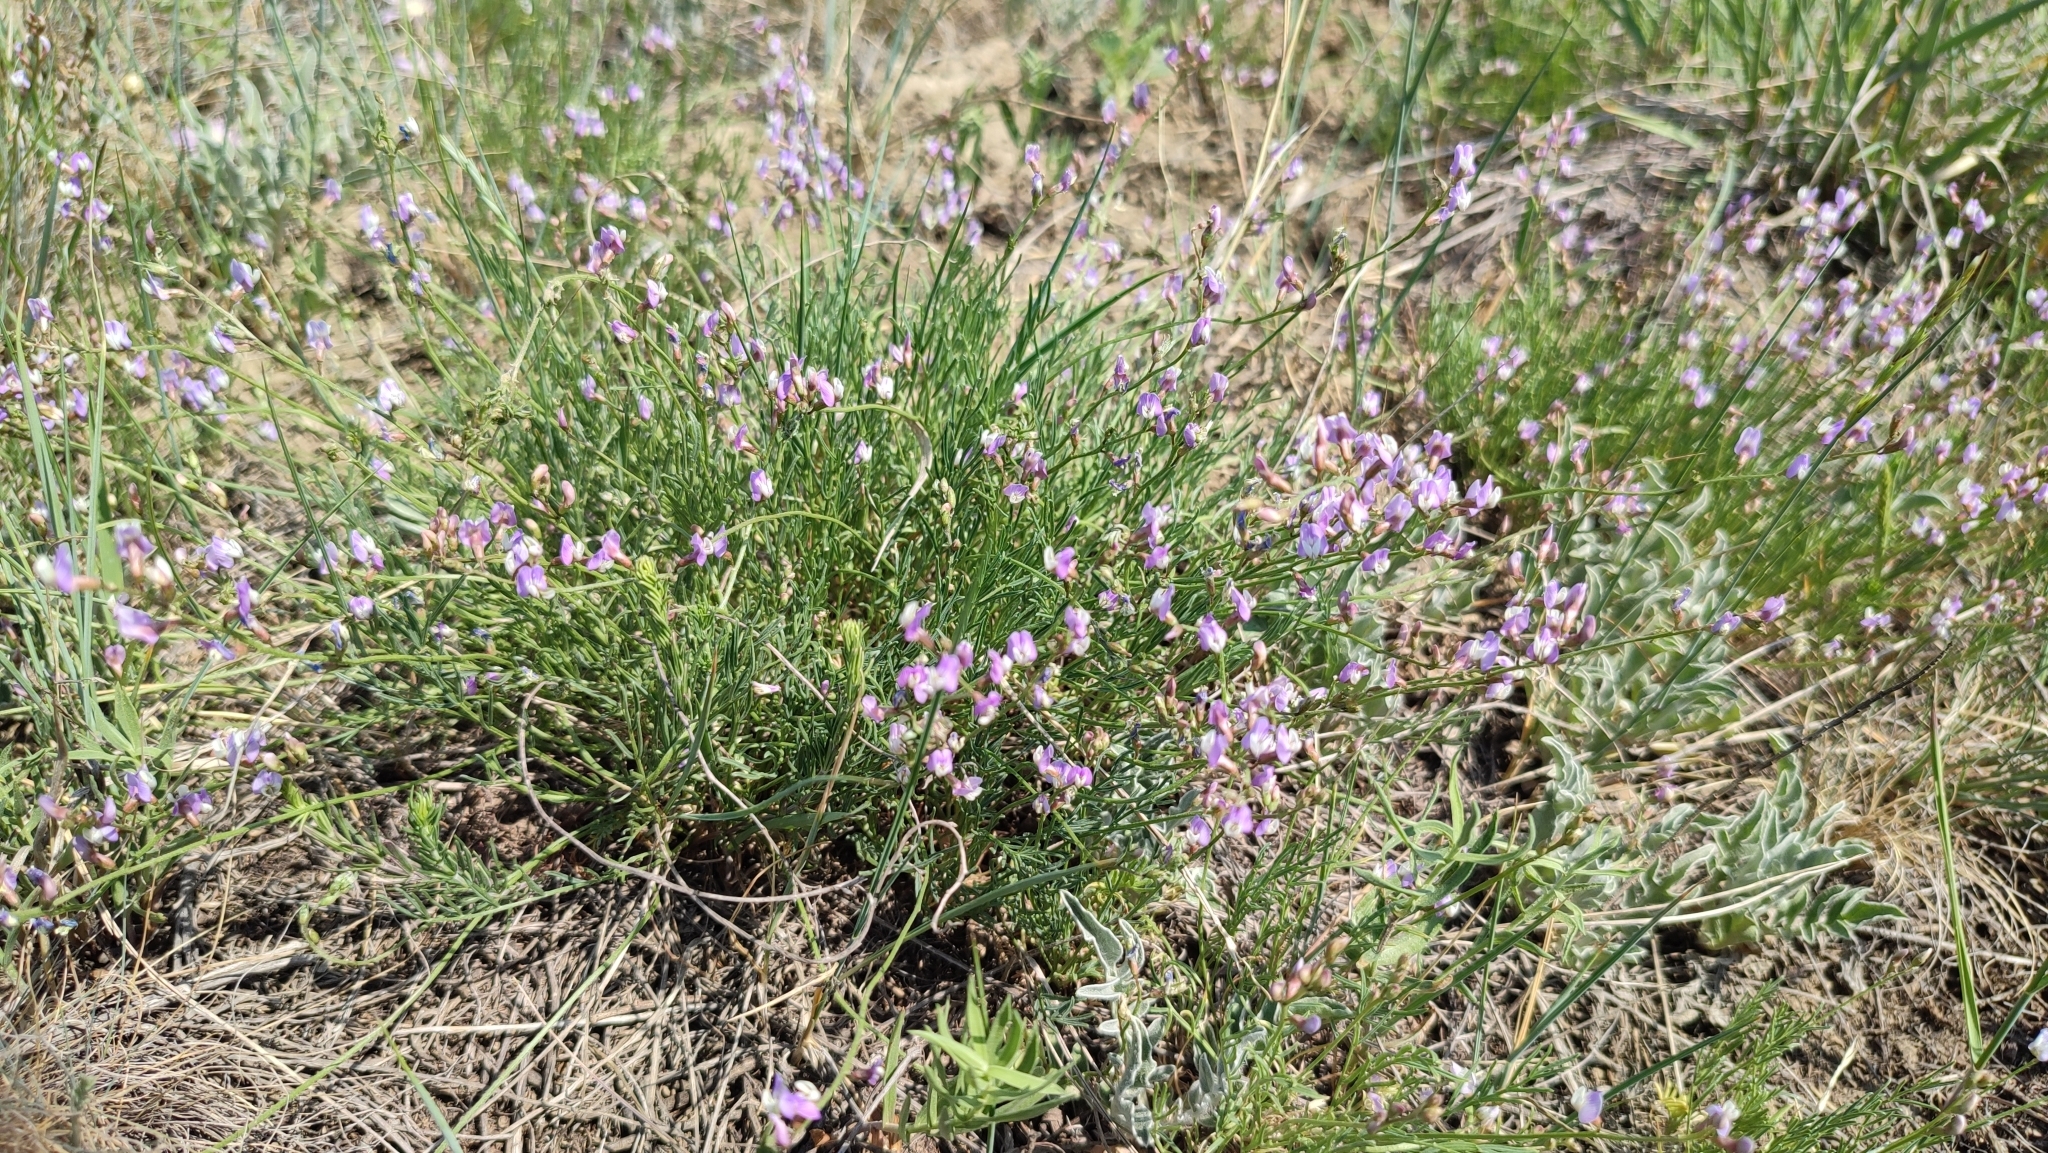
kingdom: Plantae
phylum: Tracheophyta
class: Magnoliopsida
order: Fabales
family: Fabaceae
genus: Astragalus
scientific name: Astragalus
